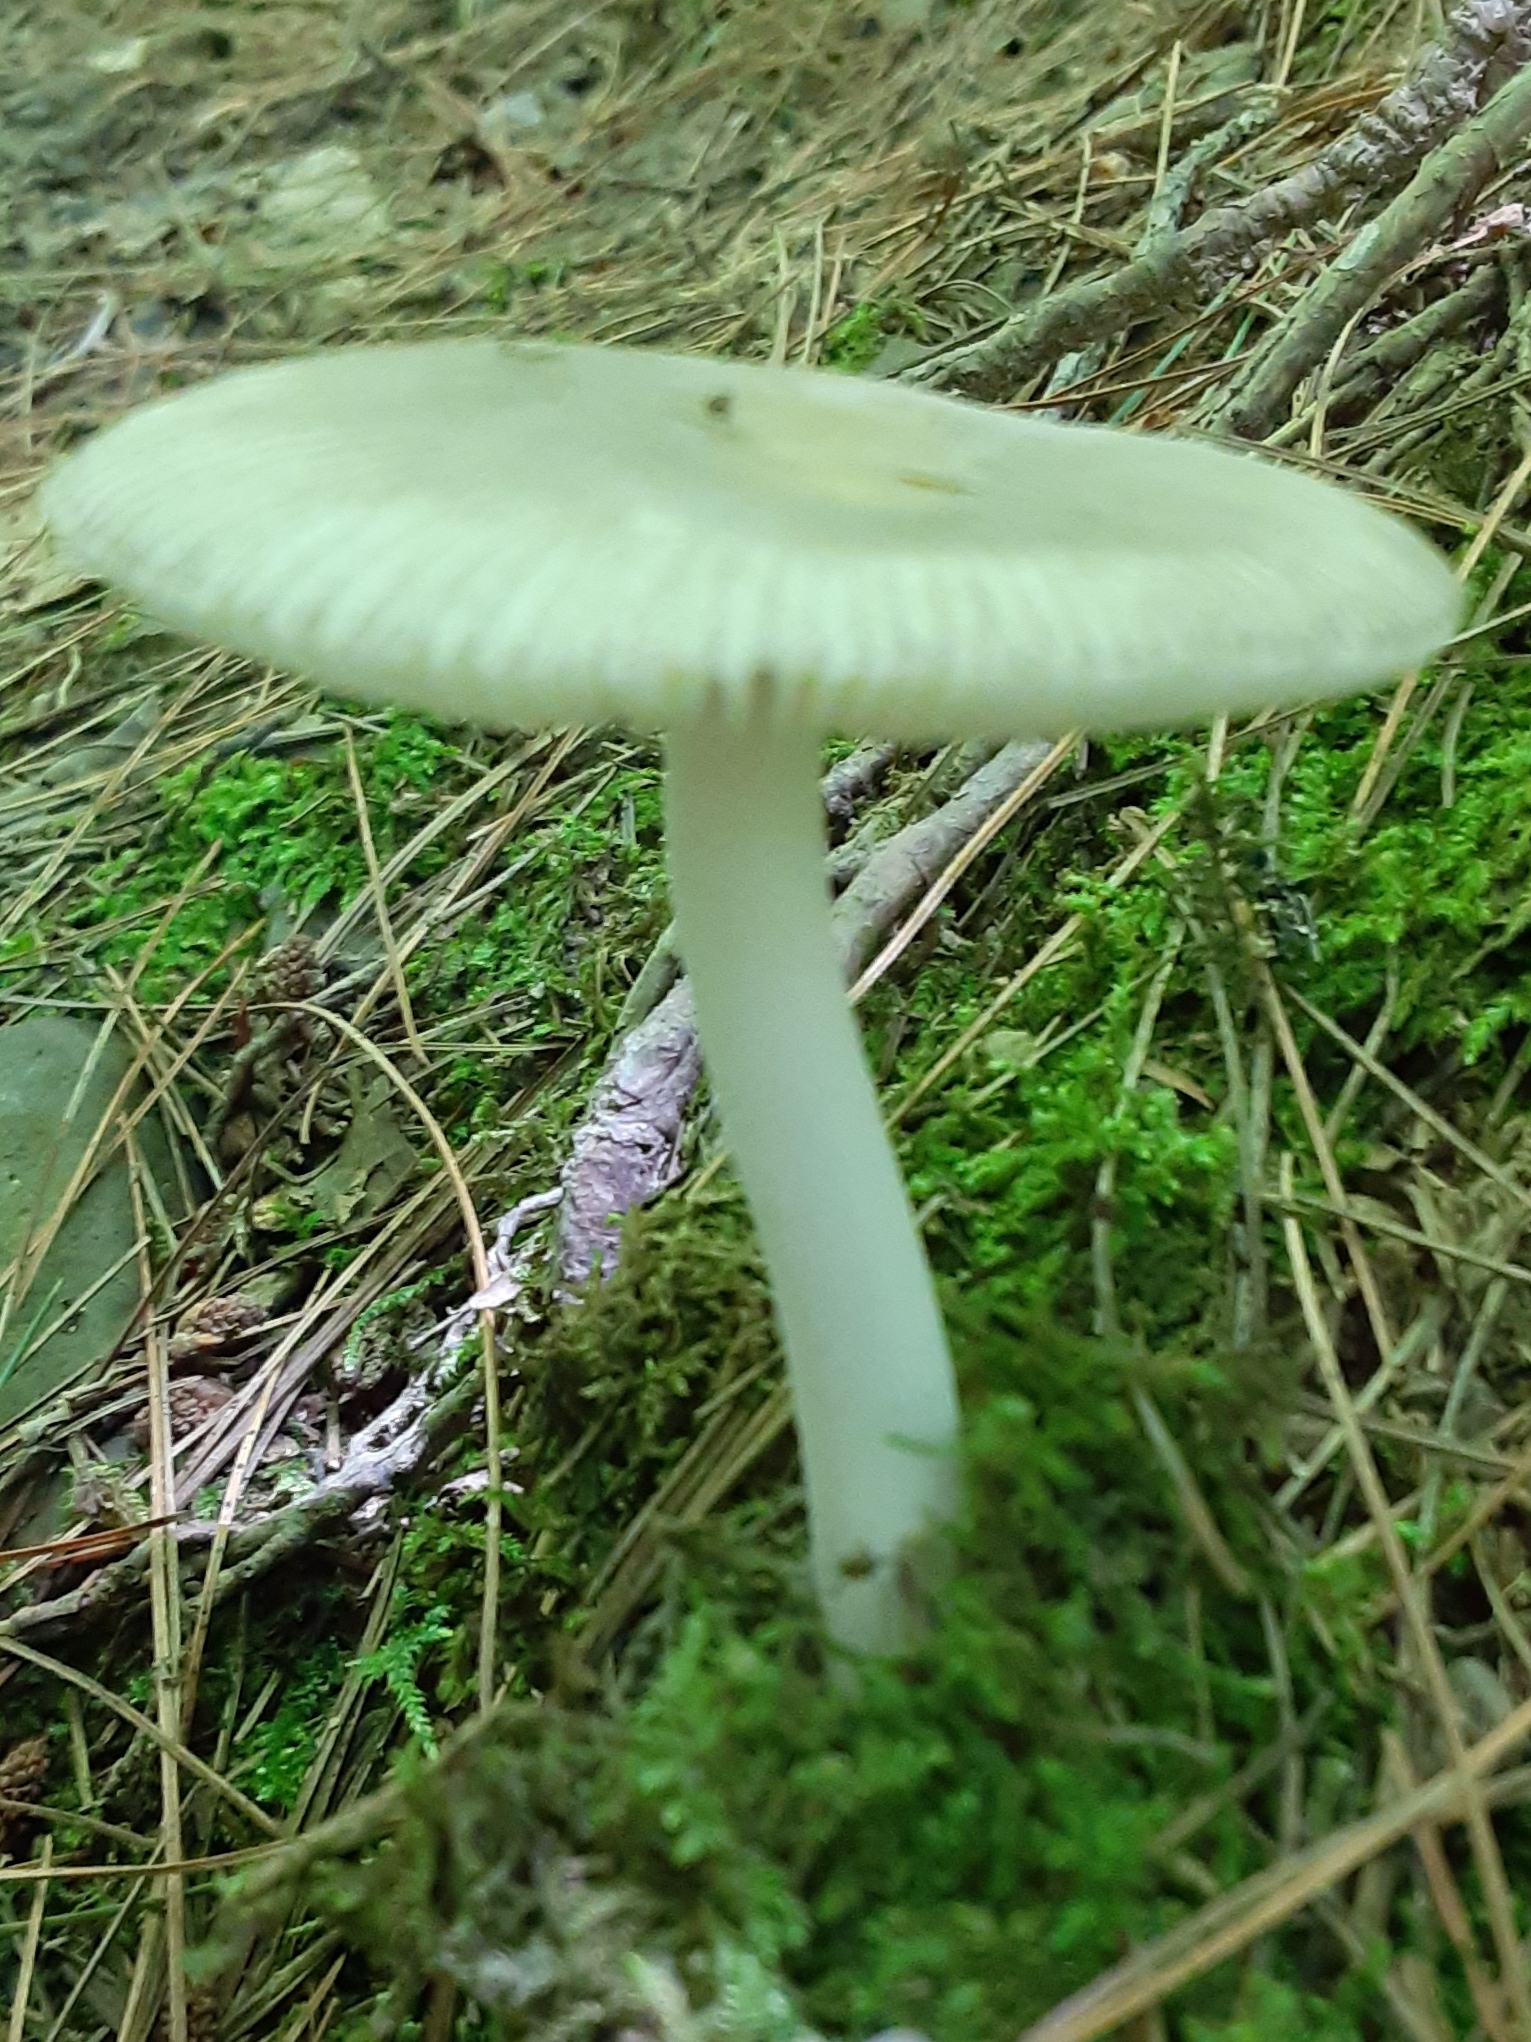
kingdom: Fungi
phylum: Basidiomycota
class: Agaricomycetes
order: Agaricales
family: Amanitaceae
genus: Amanita
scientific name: Amanita farinosa
